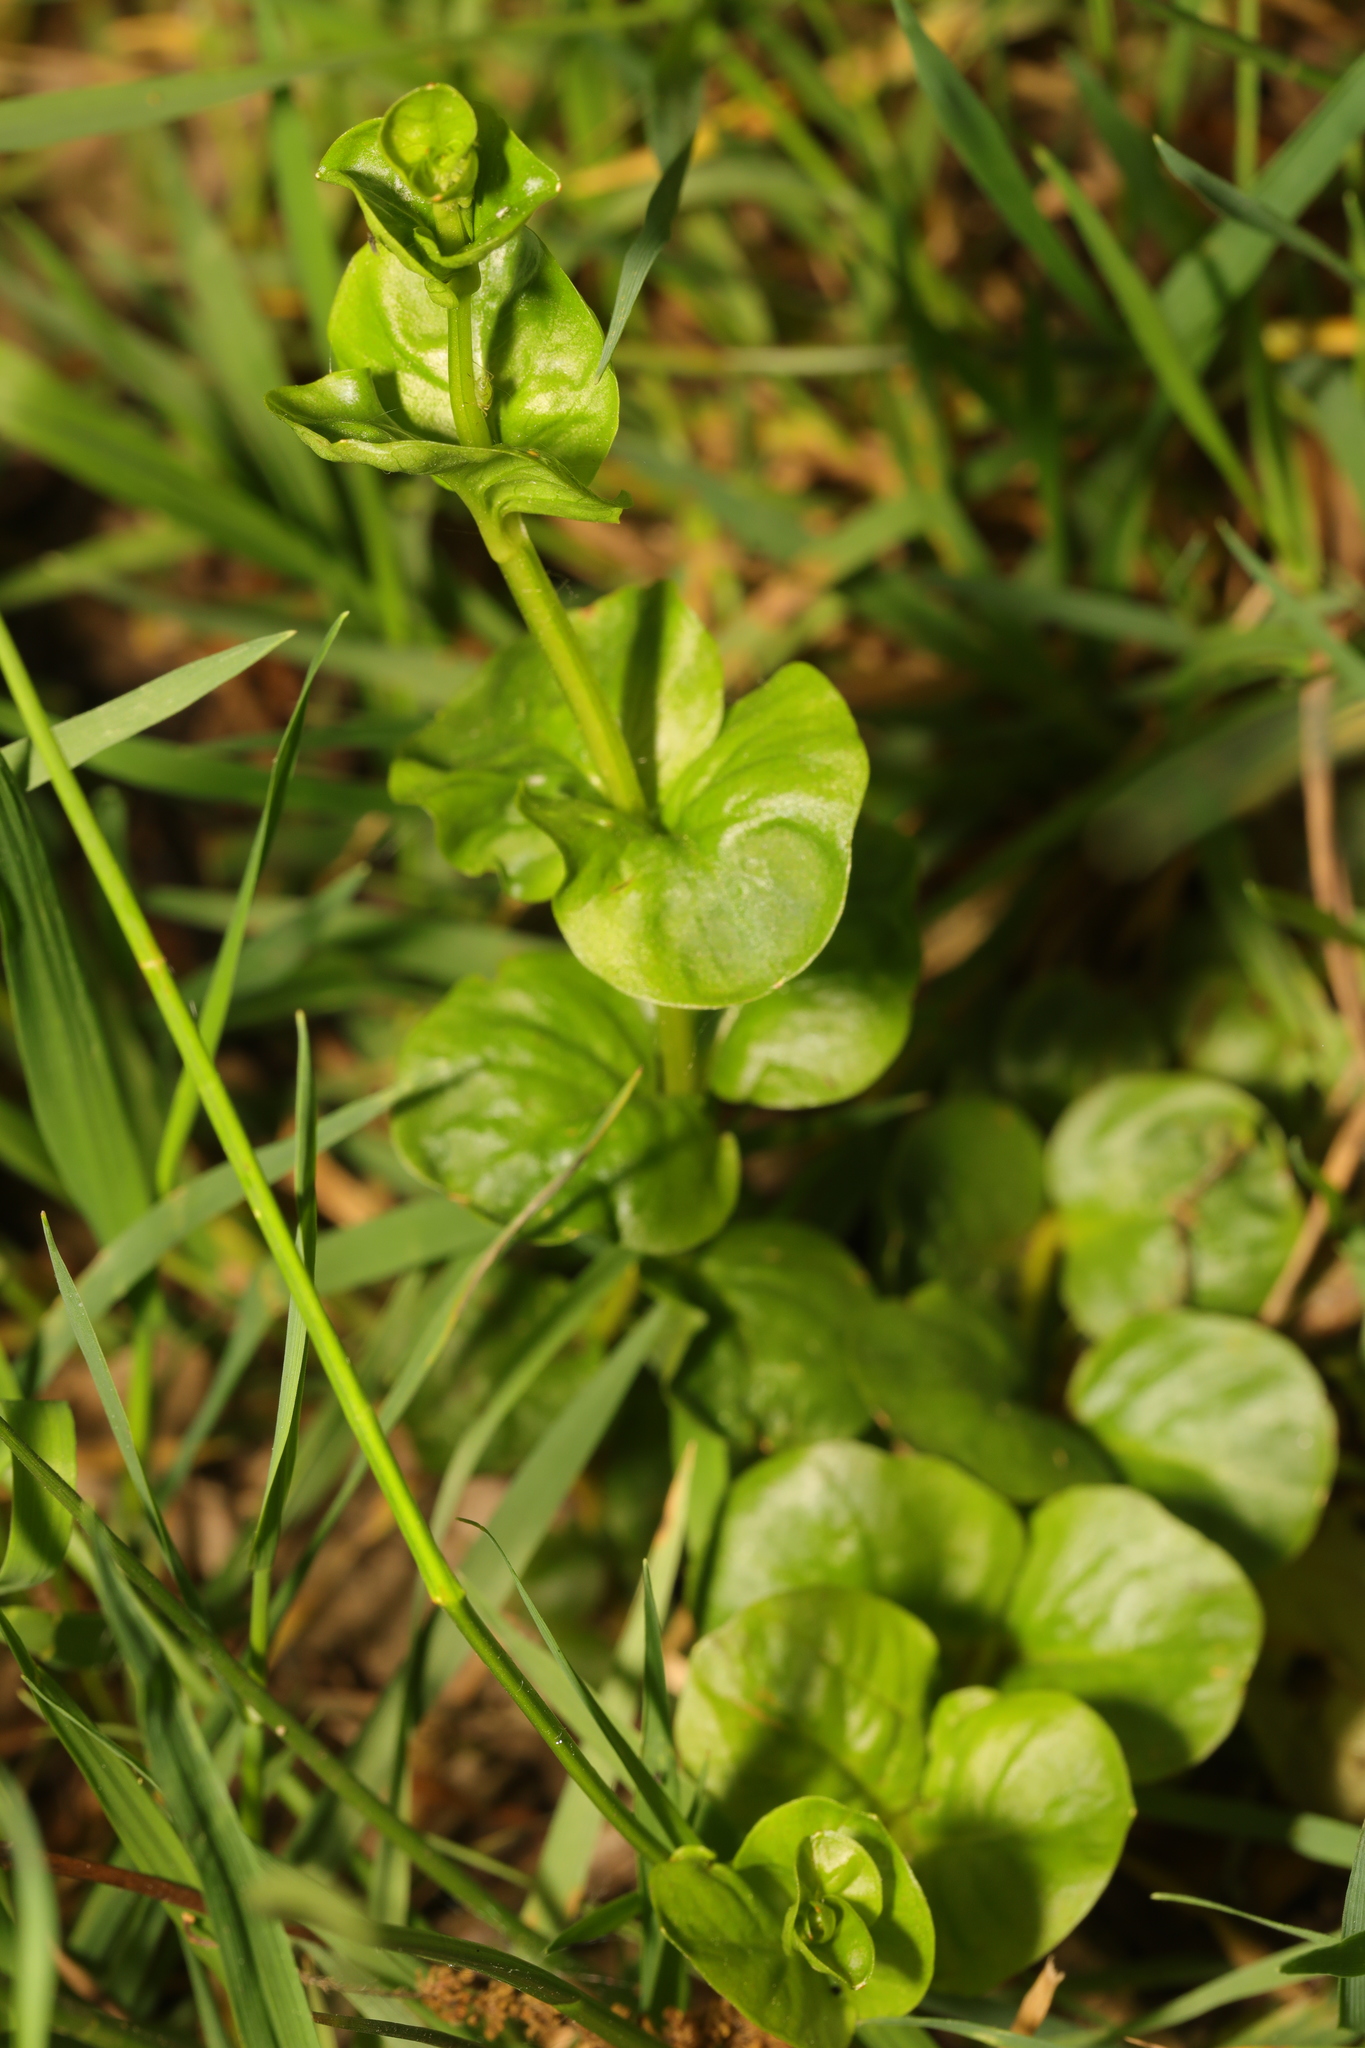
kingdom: Plantae
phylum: Tracheophyta
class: Magnoliopsida
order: Ericales
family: Primulaceae
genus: Lysimachia
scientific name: Lysimachia nummularia
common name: Moneywort
